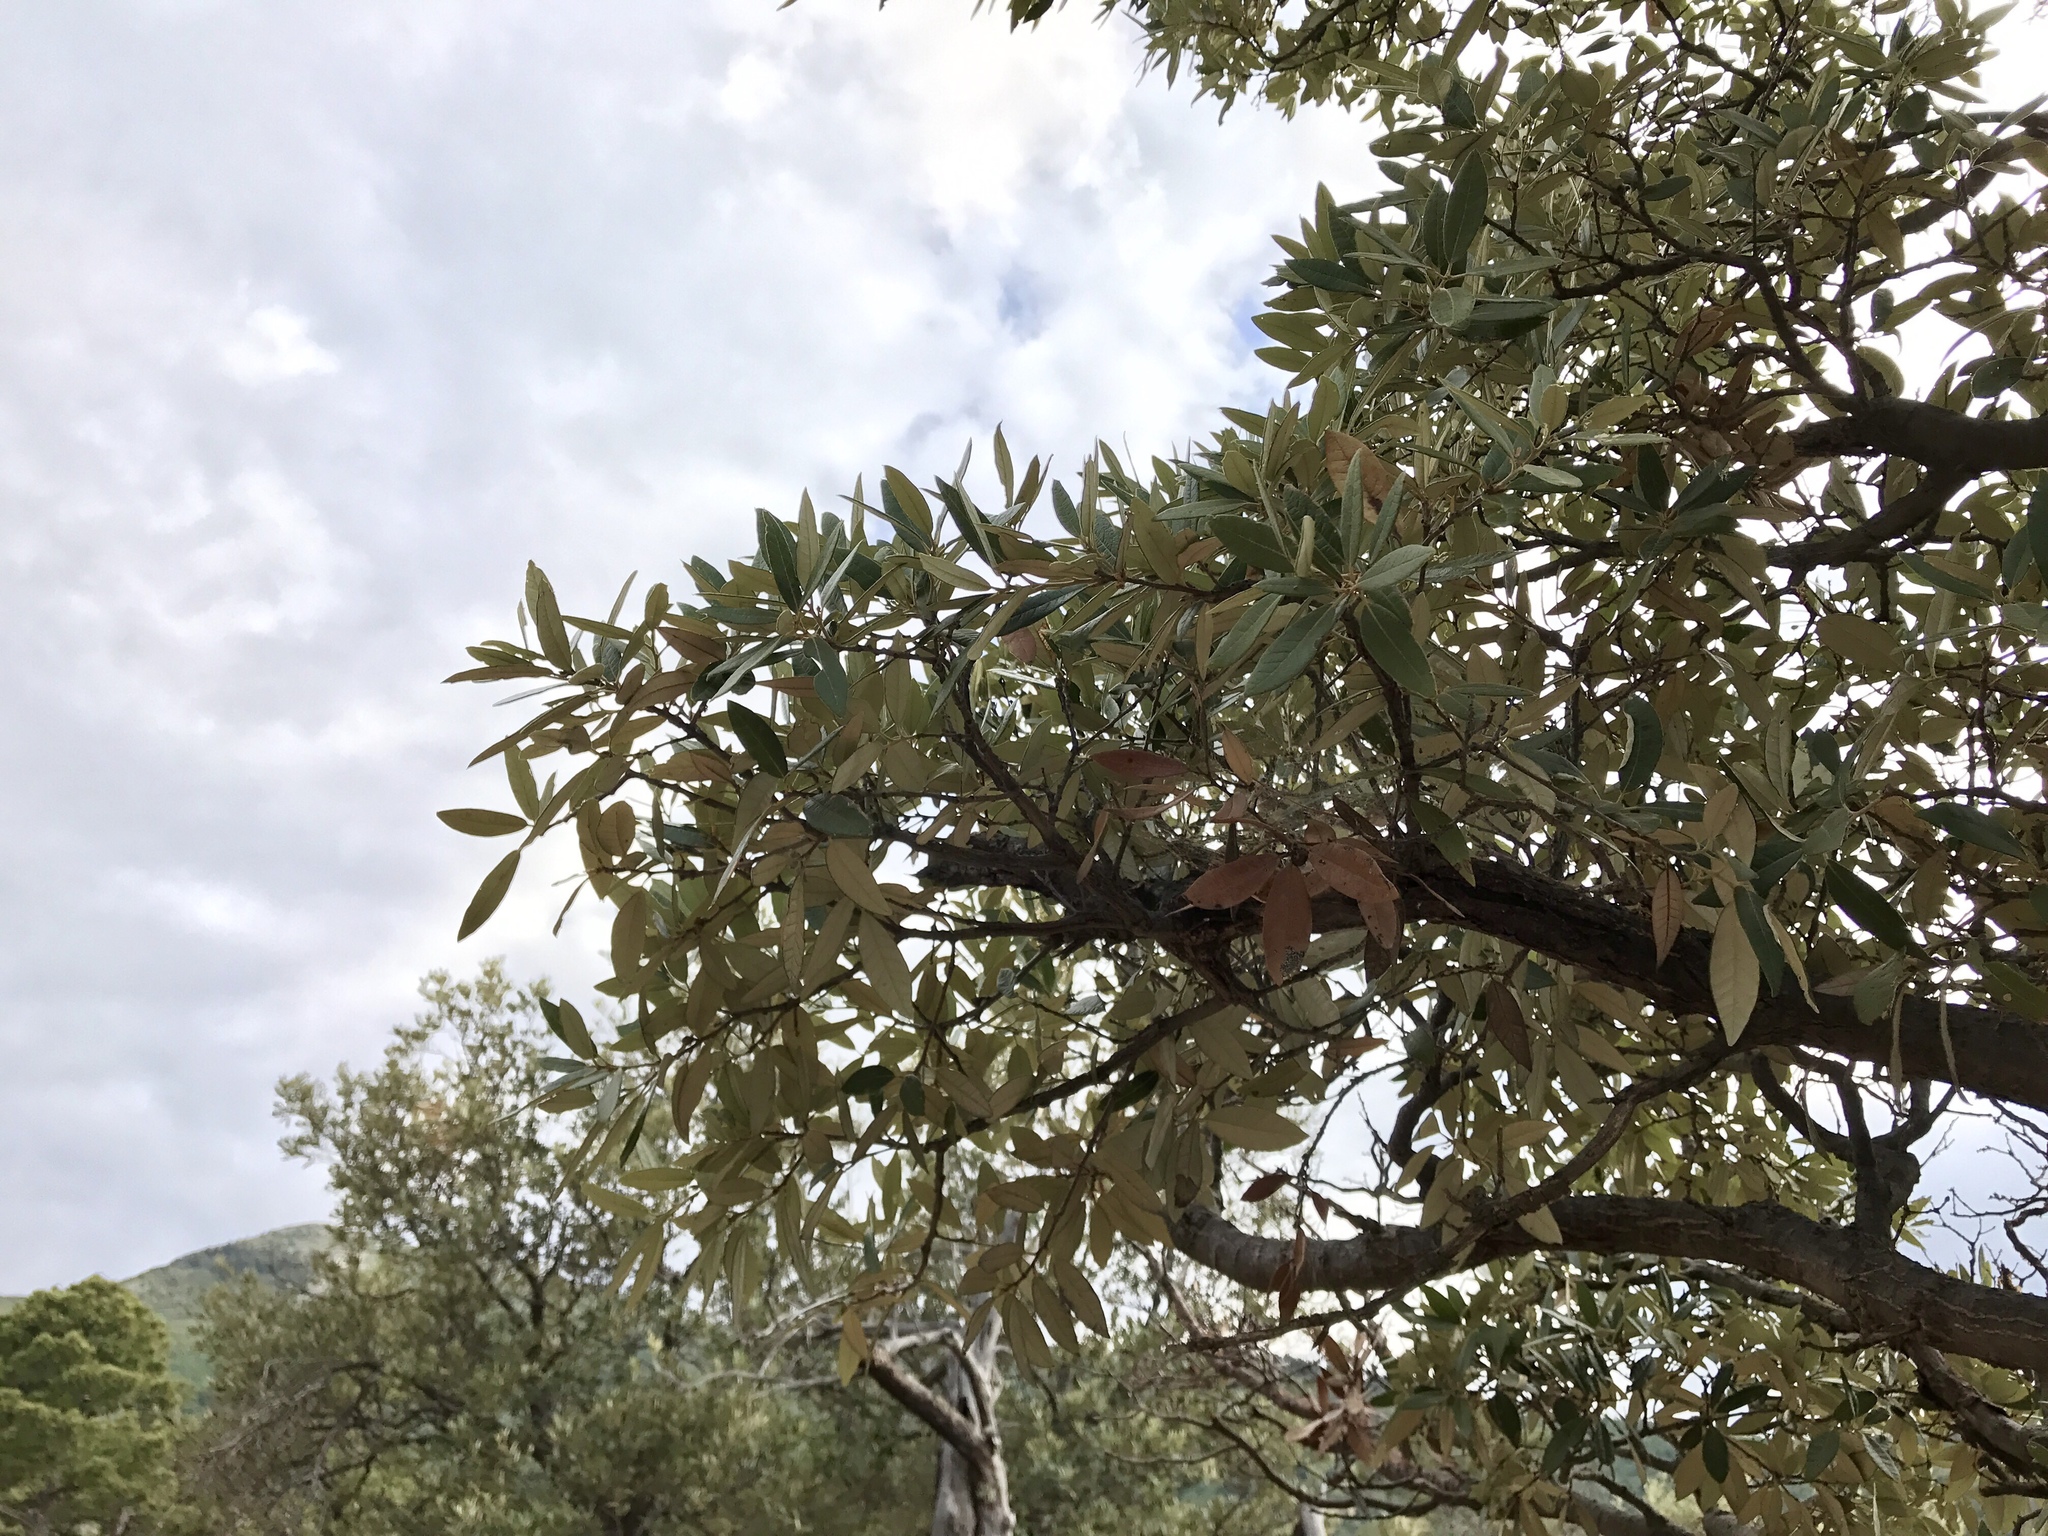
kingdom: Plantae
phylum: Tracheophyta
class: Magnoliopsida
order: Fagales
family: Fagaceae
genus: Quercus
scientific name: Quercus hypoleucoides
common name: Silverleaf oak
